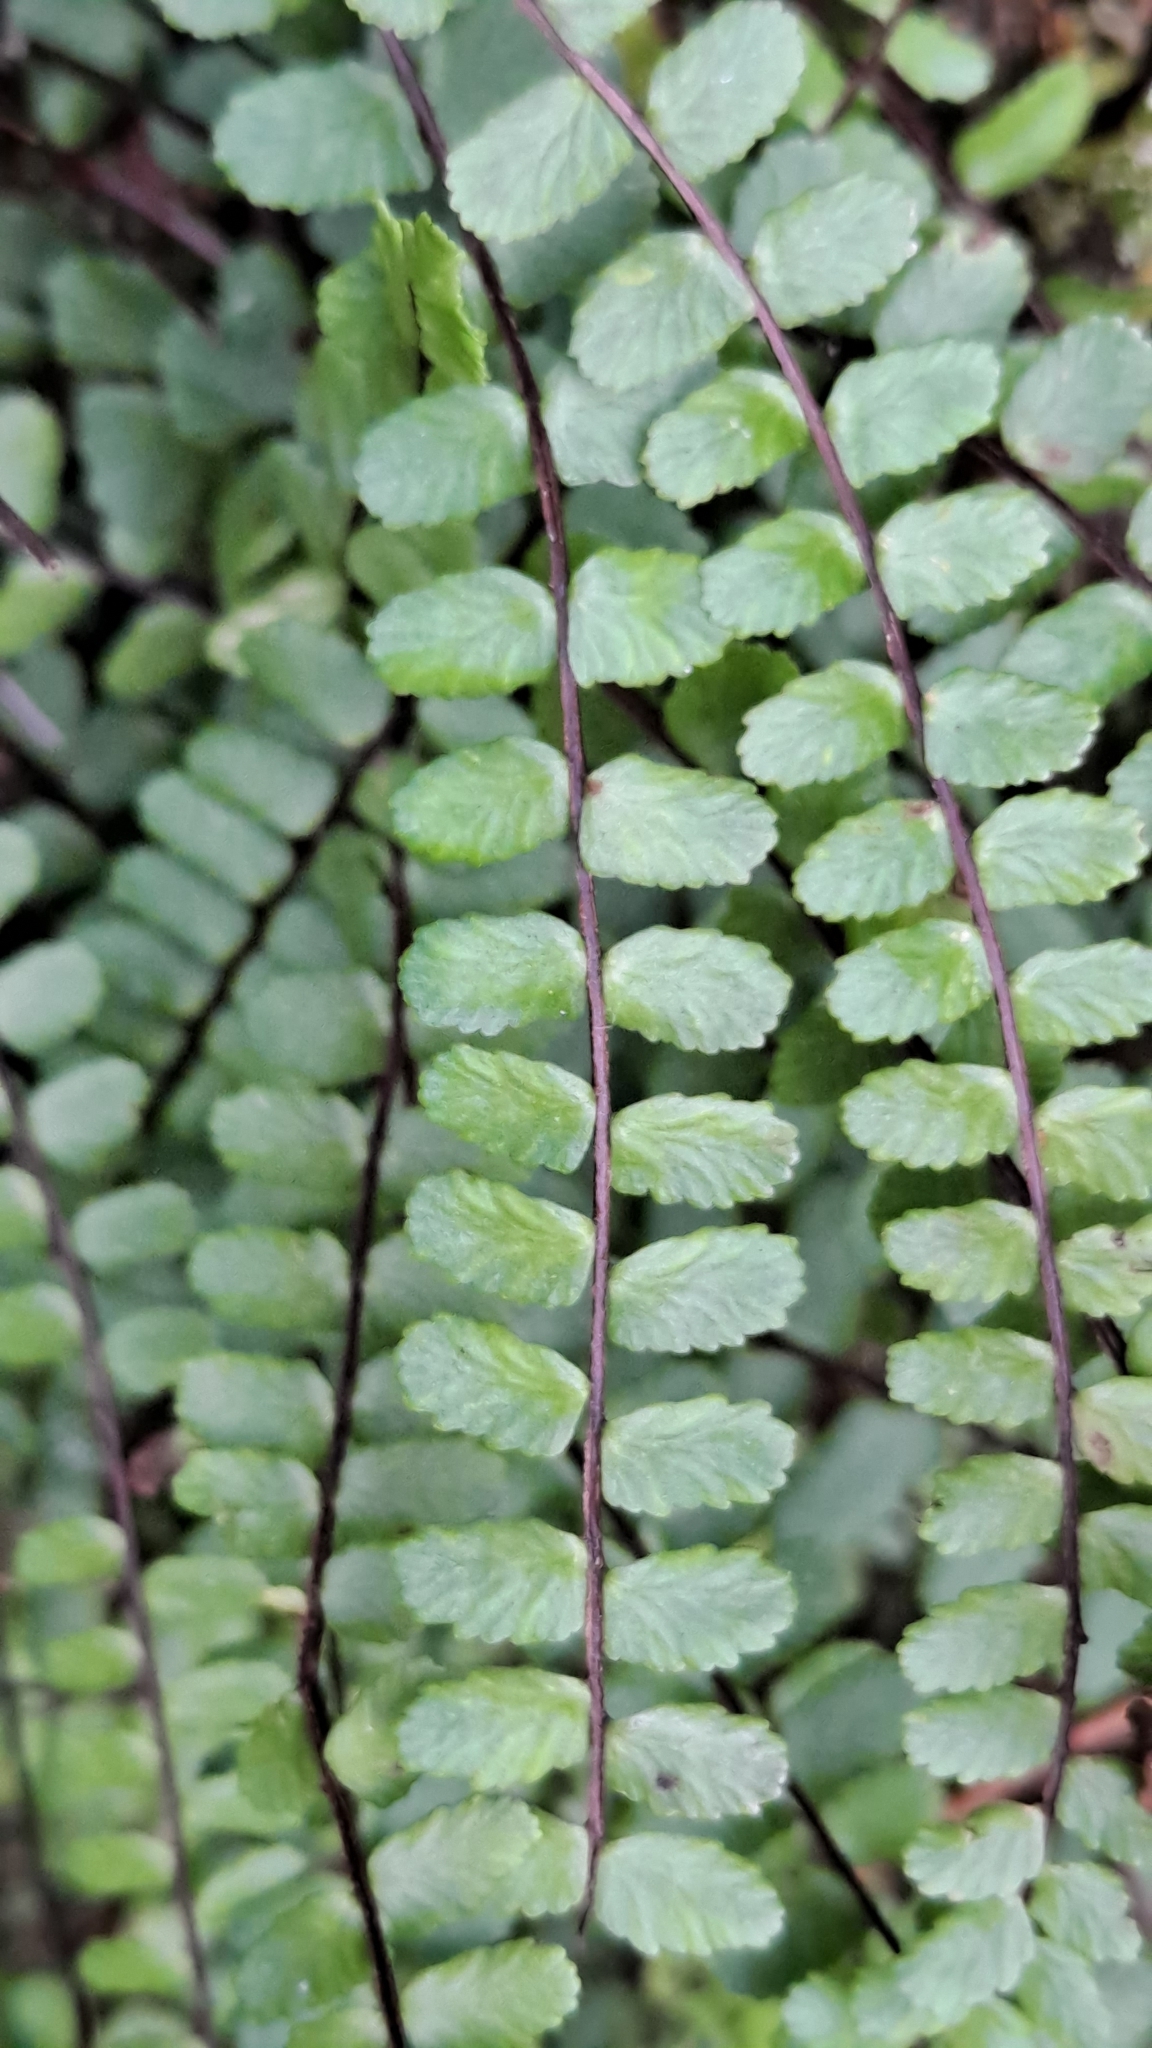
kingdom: Plantae
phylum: Tracheophyta
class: Polypodiopsida
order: Polypodiales
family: Aspleniaceae
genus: Asplenium
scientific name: Asplenium trichomanes
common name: Maidenhair spleenwort
